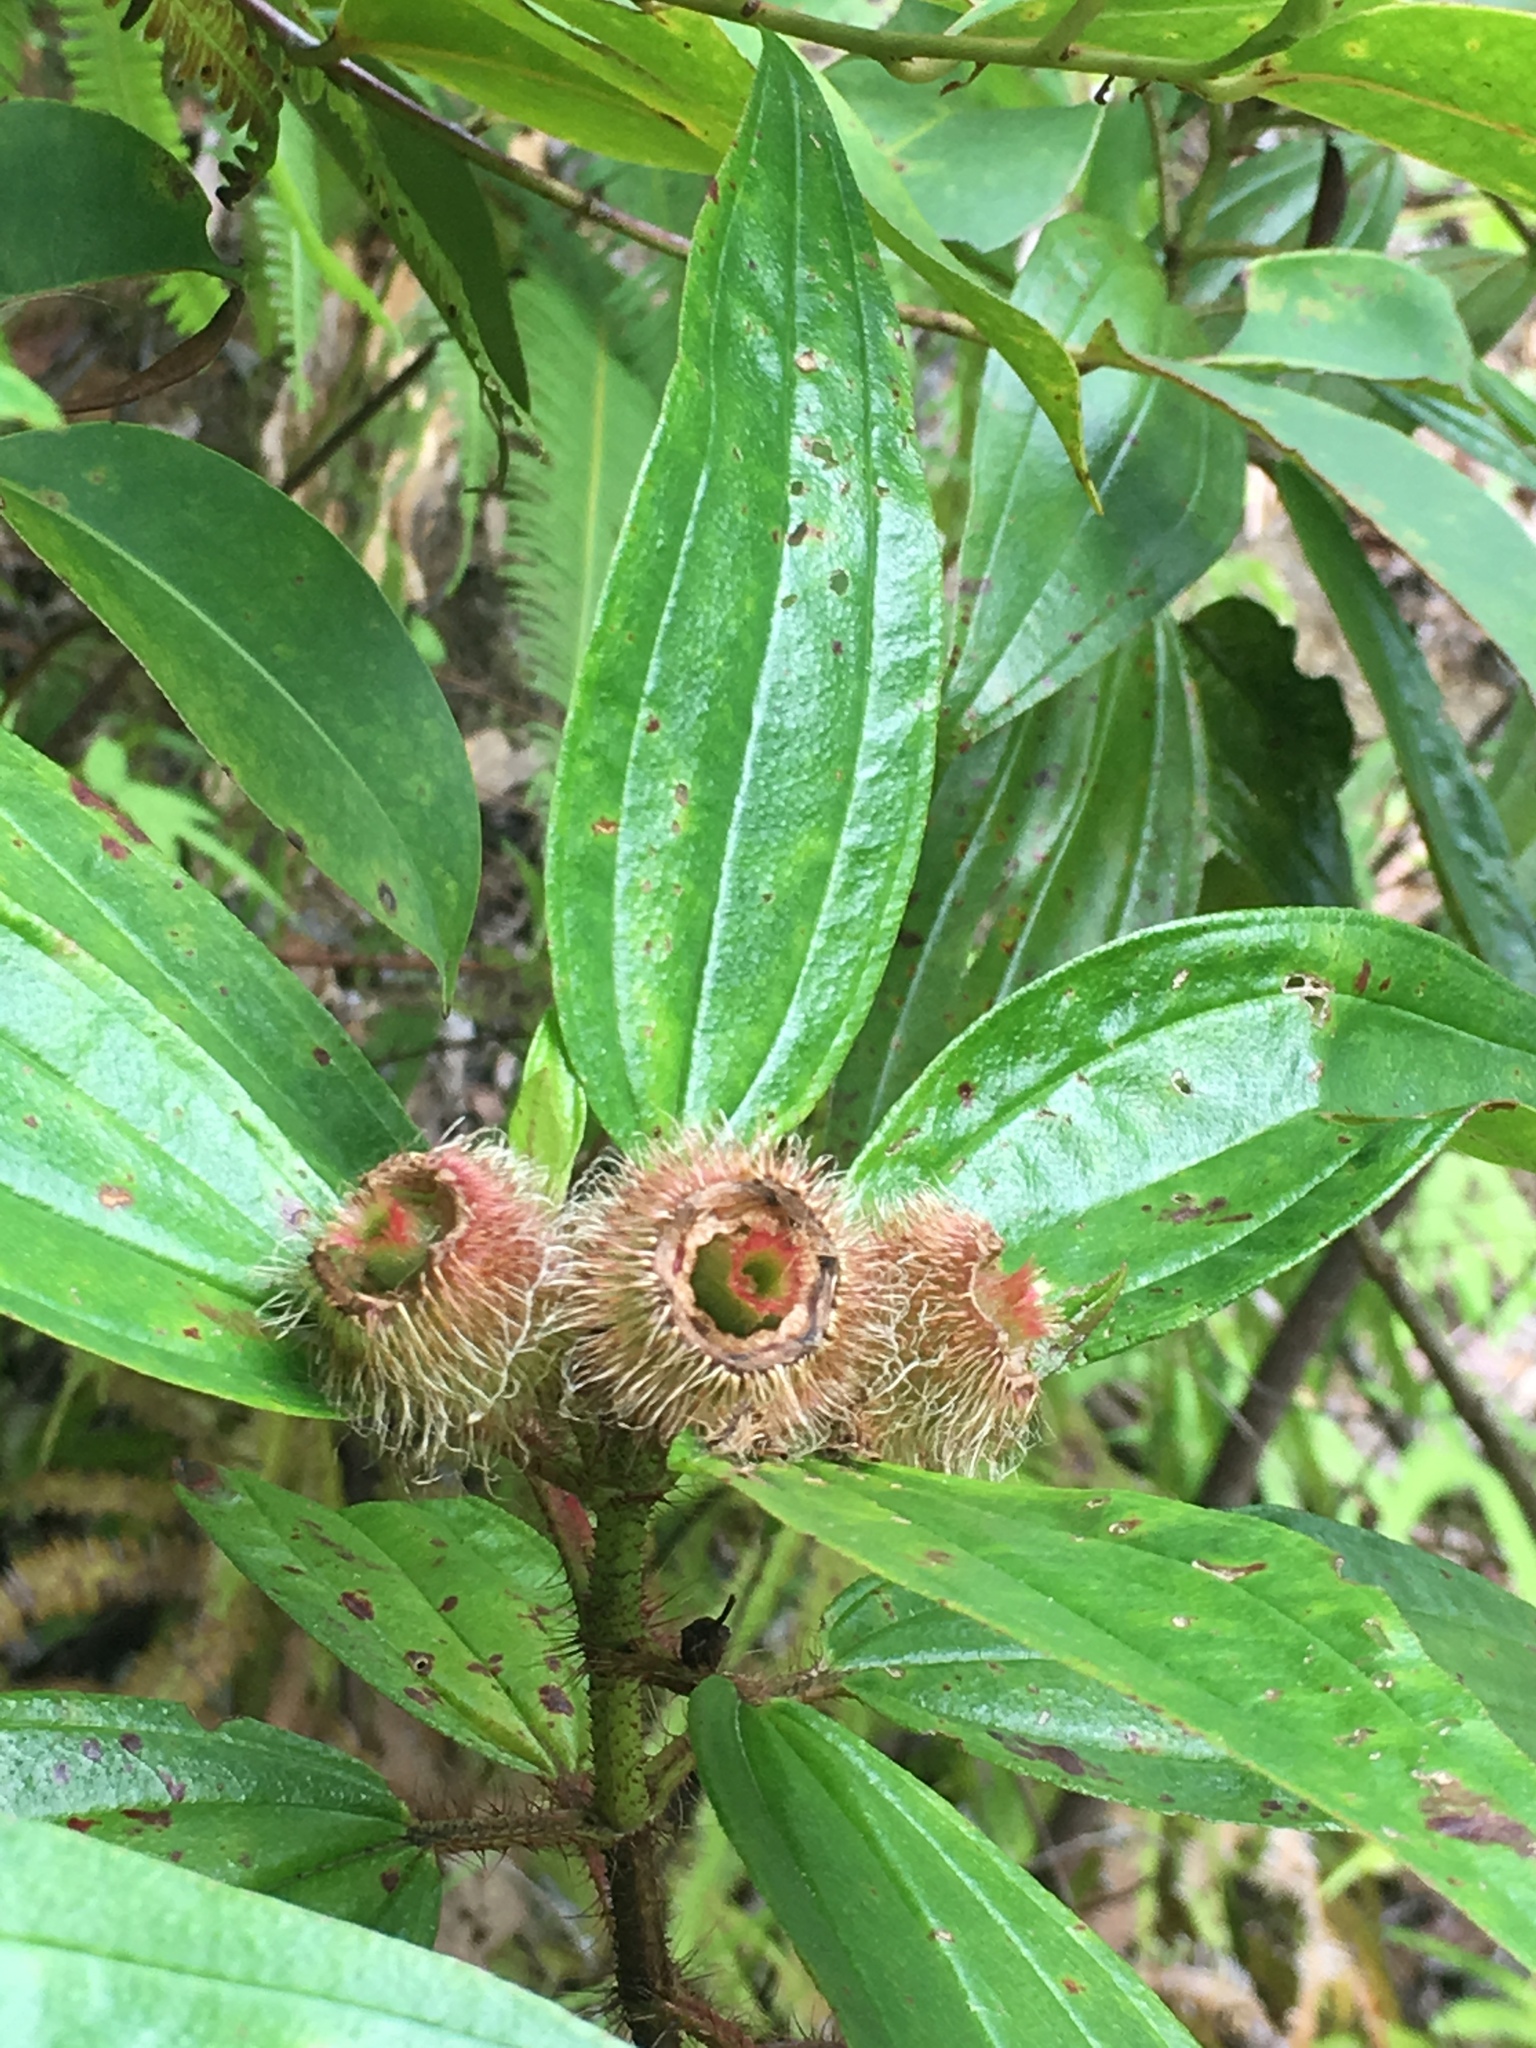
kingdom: Plantae
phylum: Tracheophyta
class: Magnoliopsida
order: Myrtales
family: Melastomataceae
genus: Melastoma
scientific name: Melastoma malabathricum
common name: Indian-rhododendron
